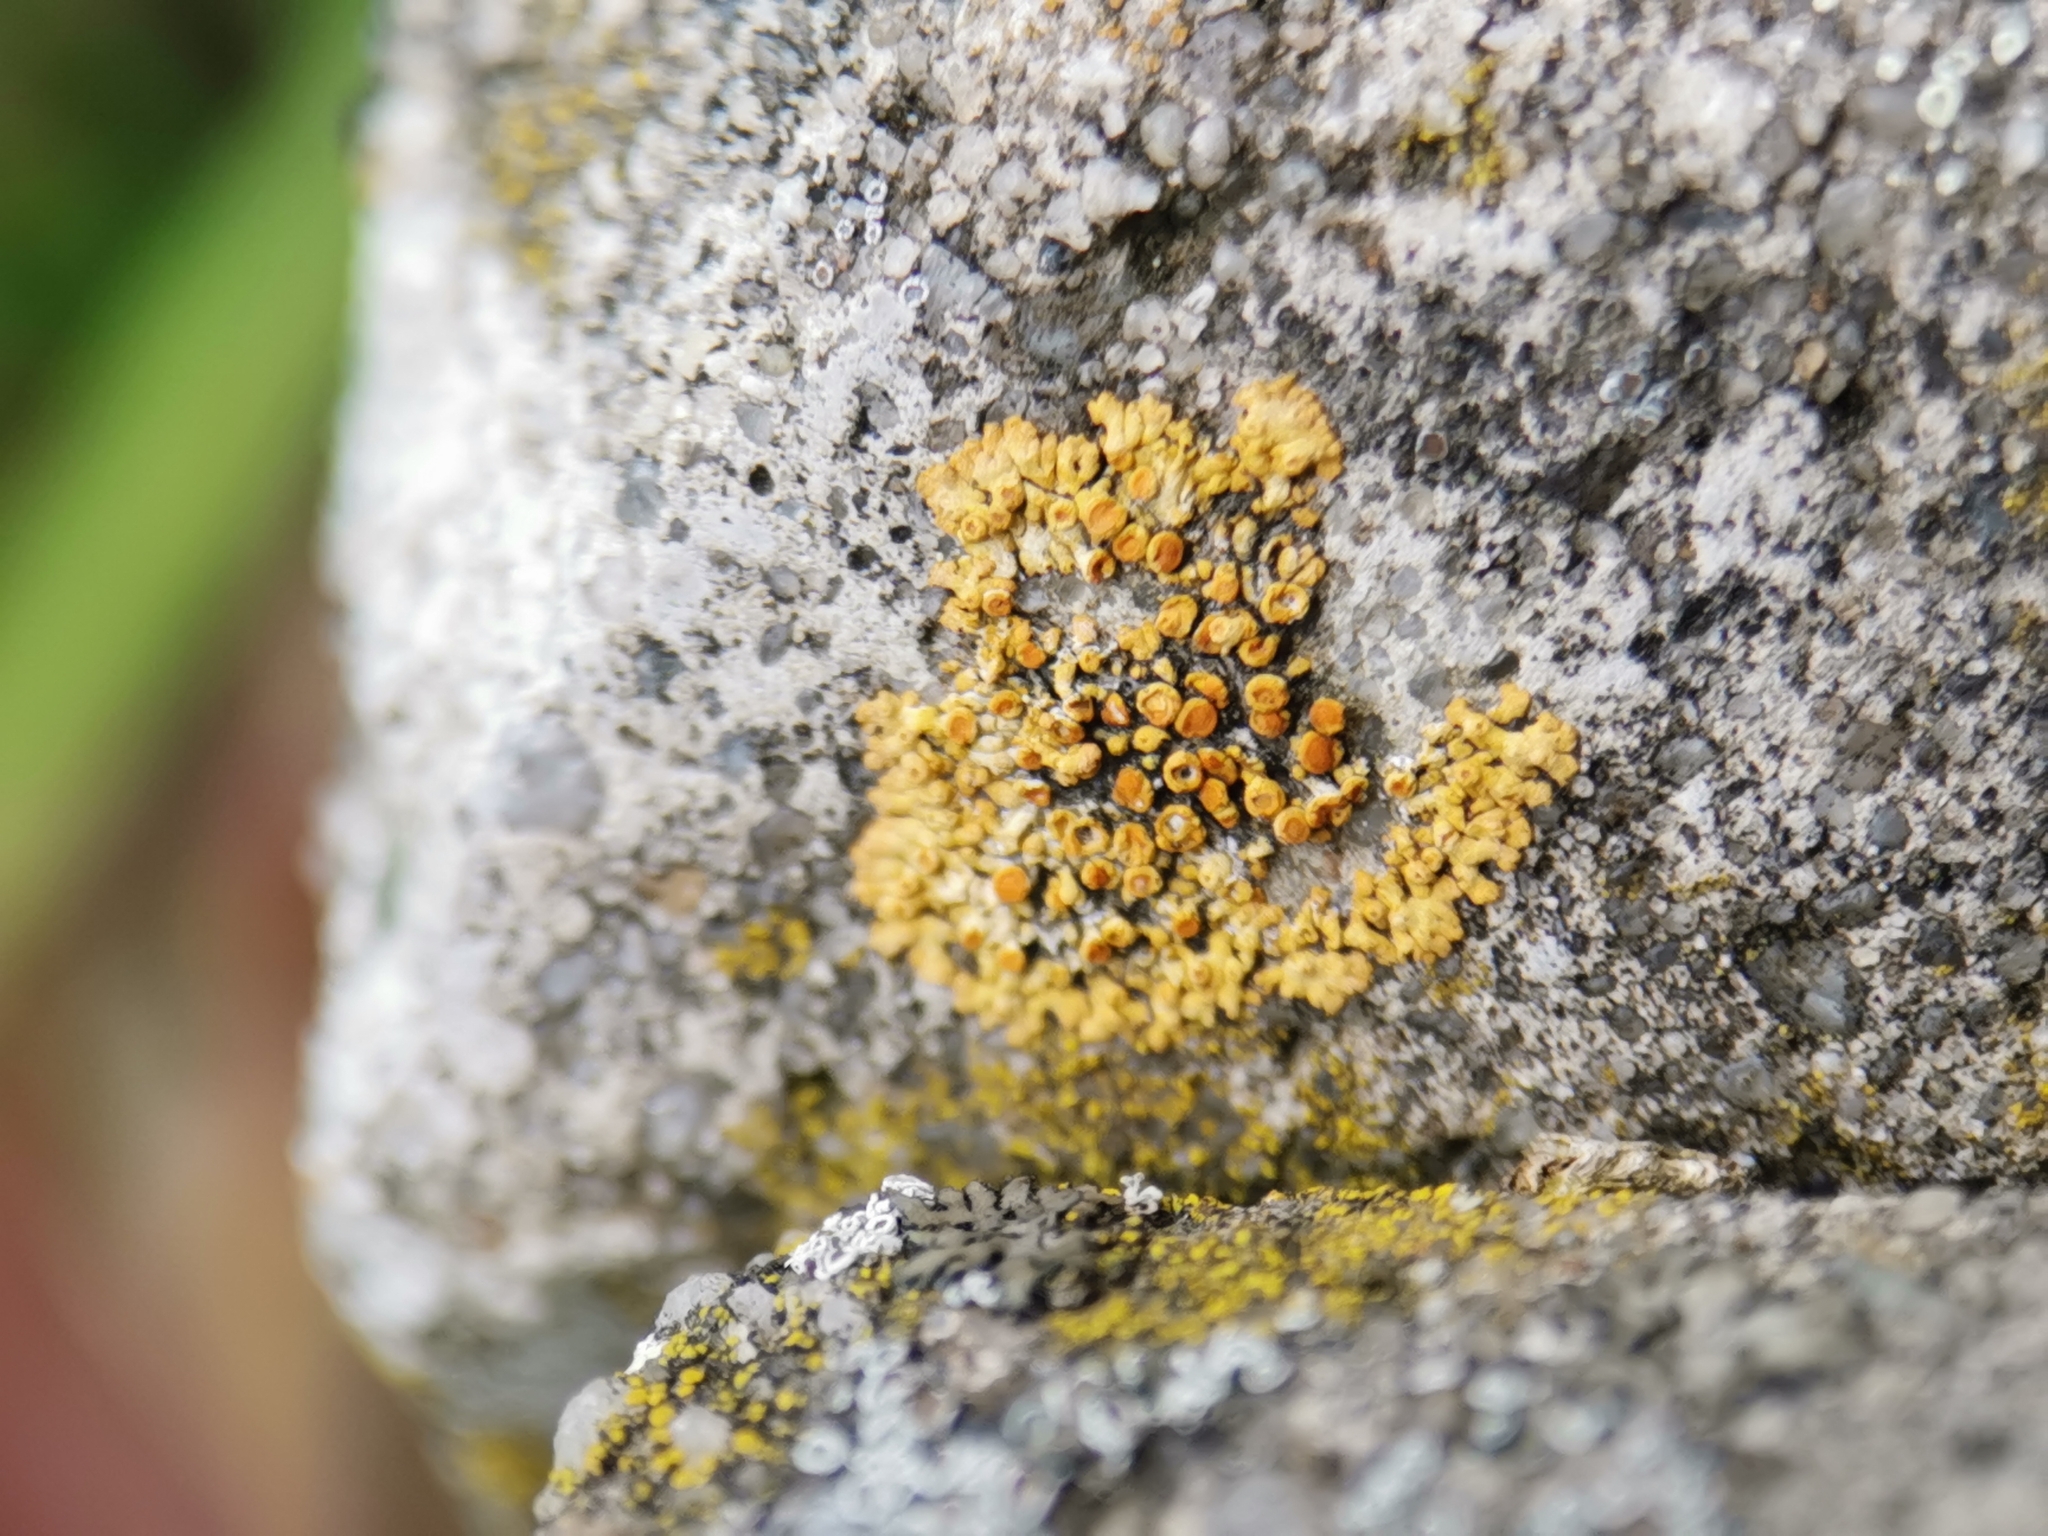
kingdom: Fungi
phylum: Ascomycota
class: Lecanoromycetes
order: Teloschistales
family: Teloschistaceae
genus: Calogaya
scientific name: Calogaya pusilla
